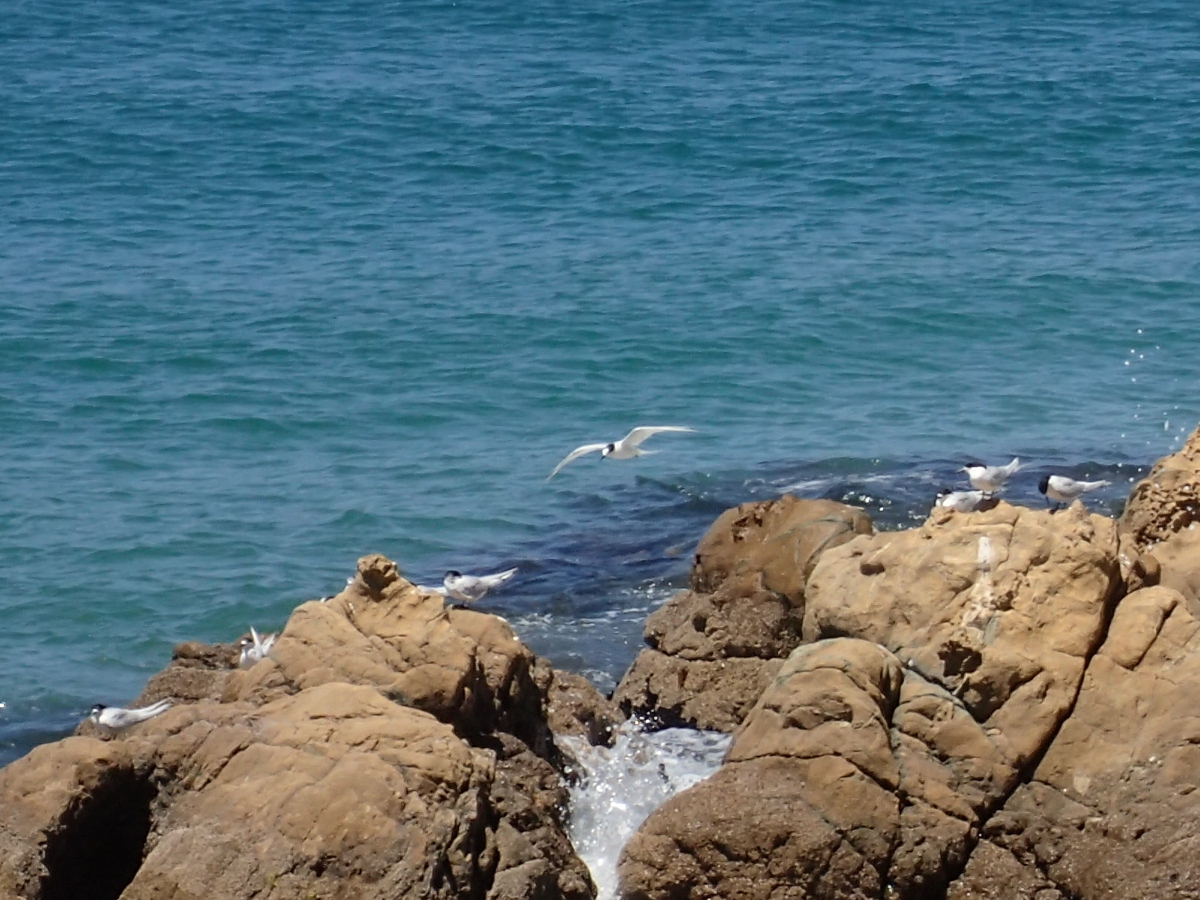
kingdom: Animalia
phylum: Chordata
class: Aves
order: Charadriiformes
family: Laridae
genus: Sterna
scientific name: Sterna striata
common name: White-fronted tern
